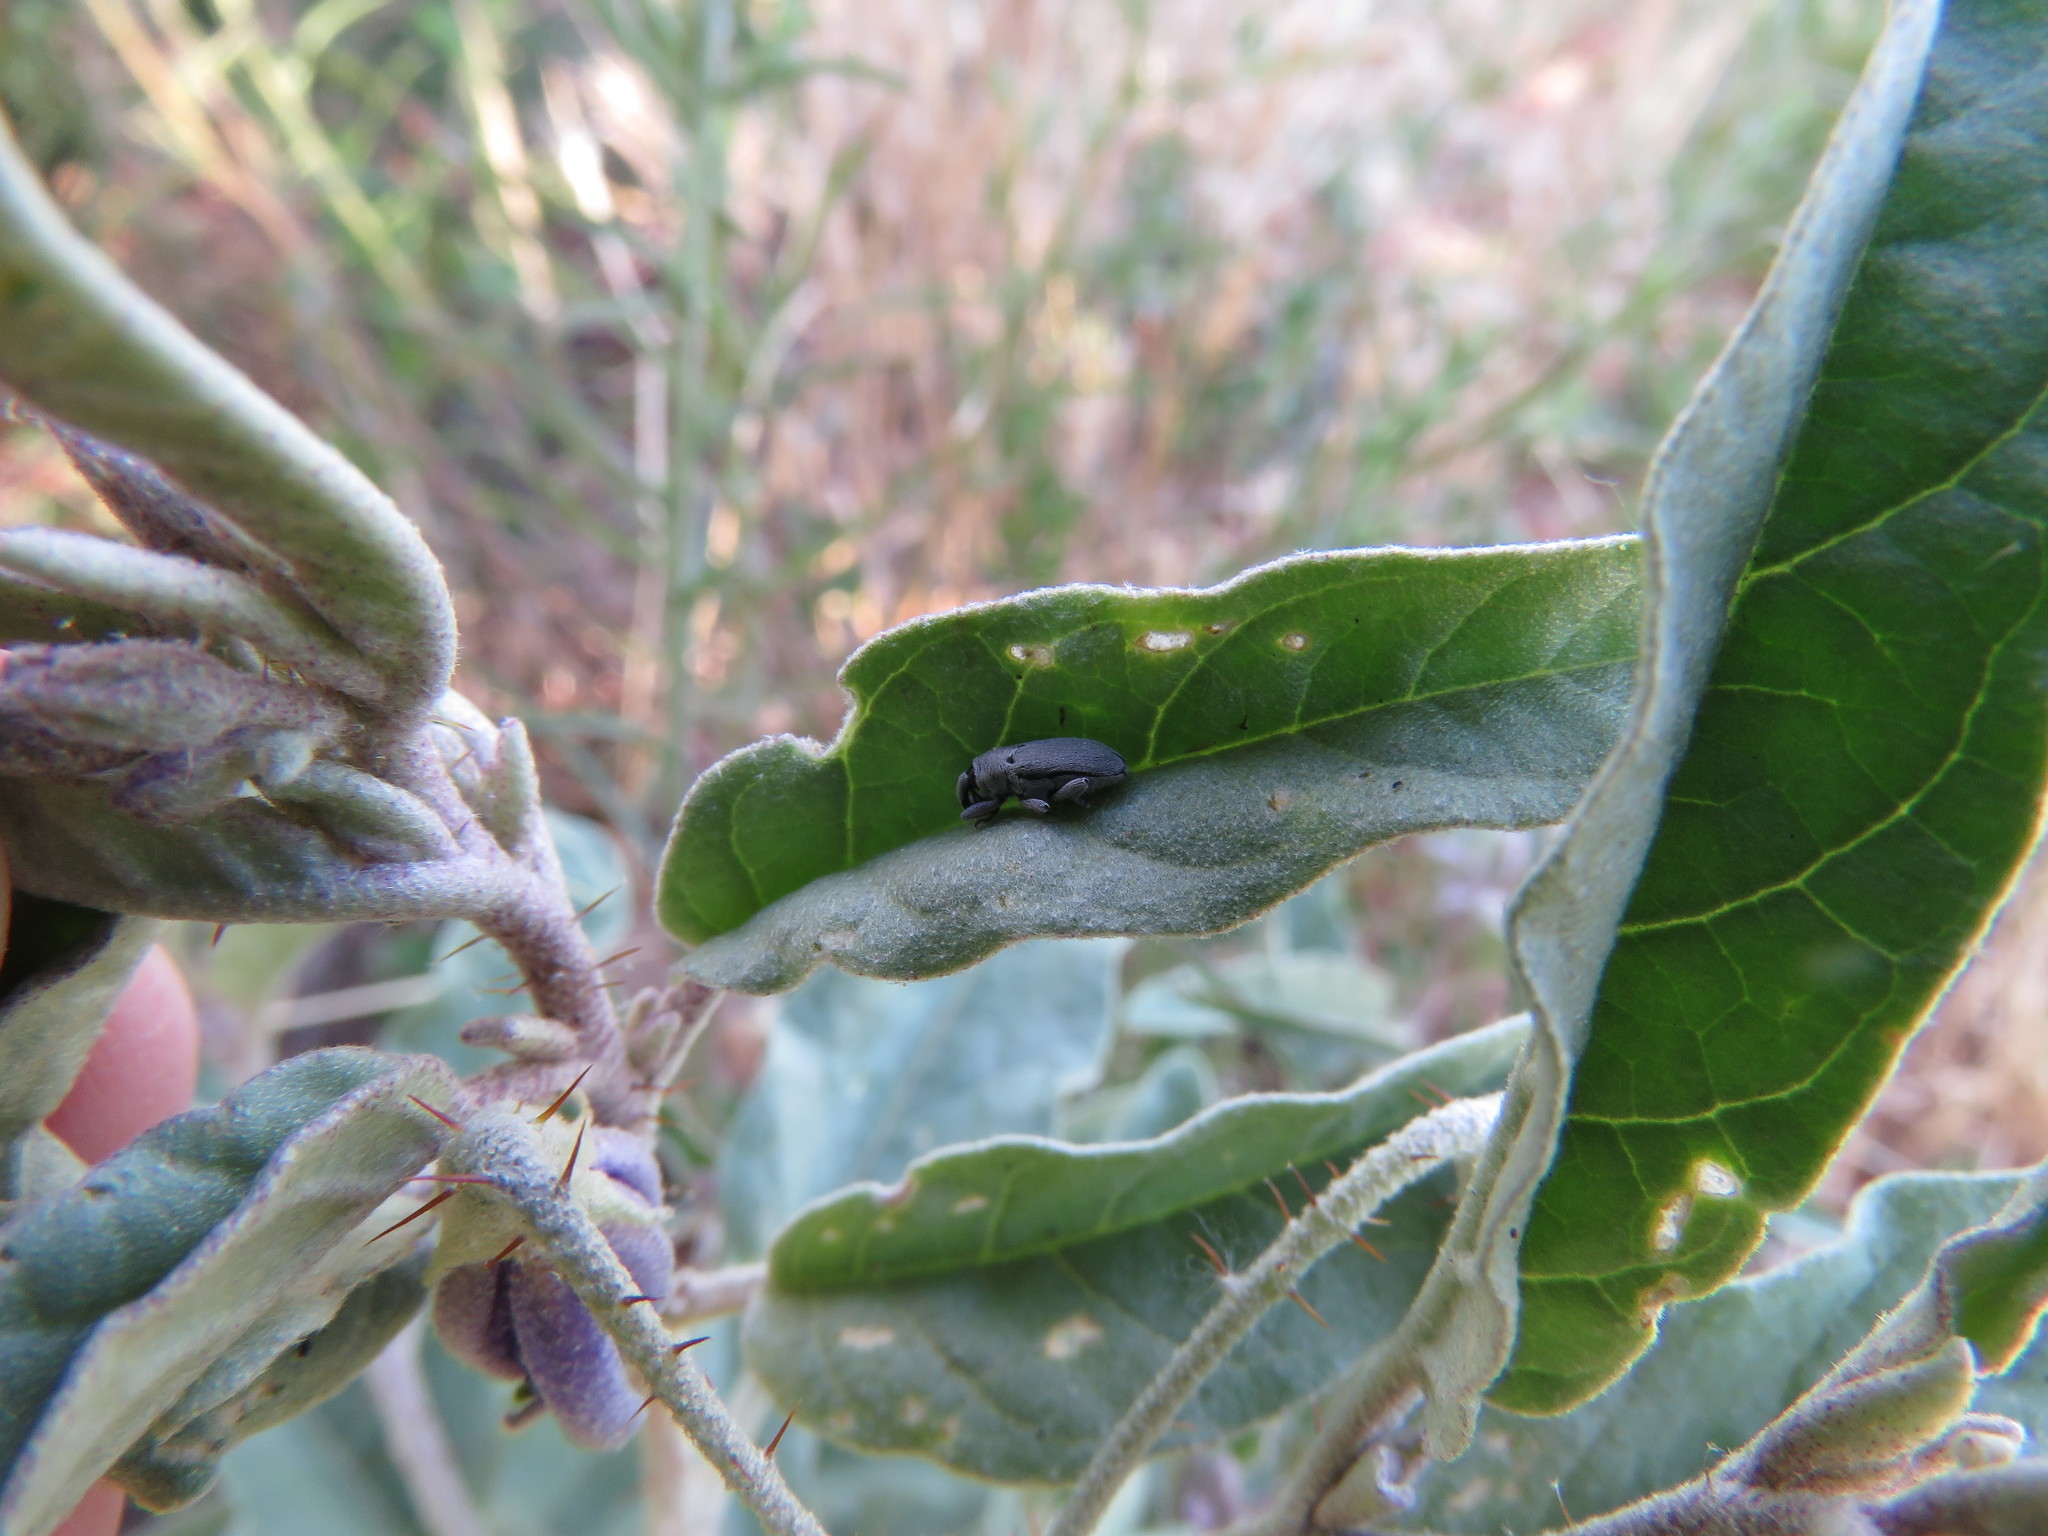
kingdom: Animalia
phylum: Arthropoda
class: Insecta
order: Coleoptera
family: Curculionidae
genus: Trichobaris
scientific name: Trichobaris compacta
